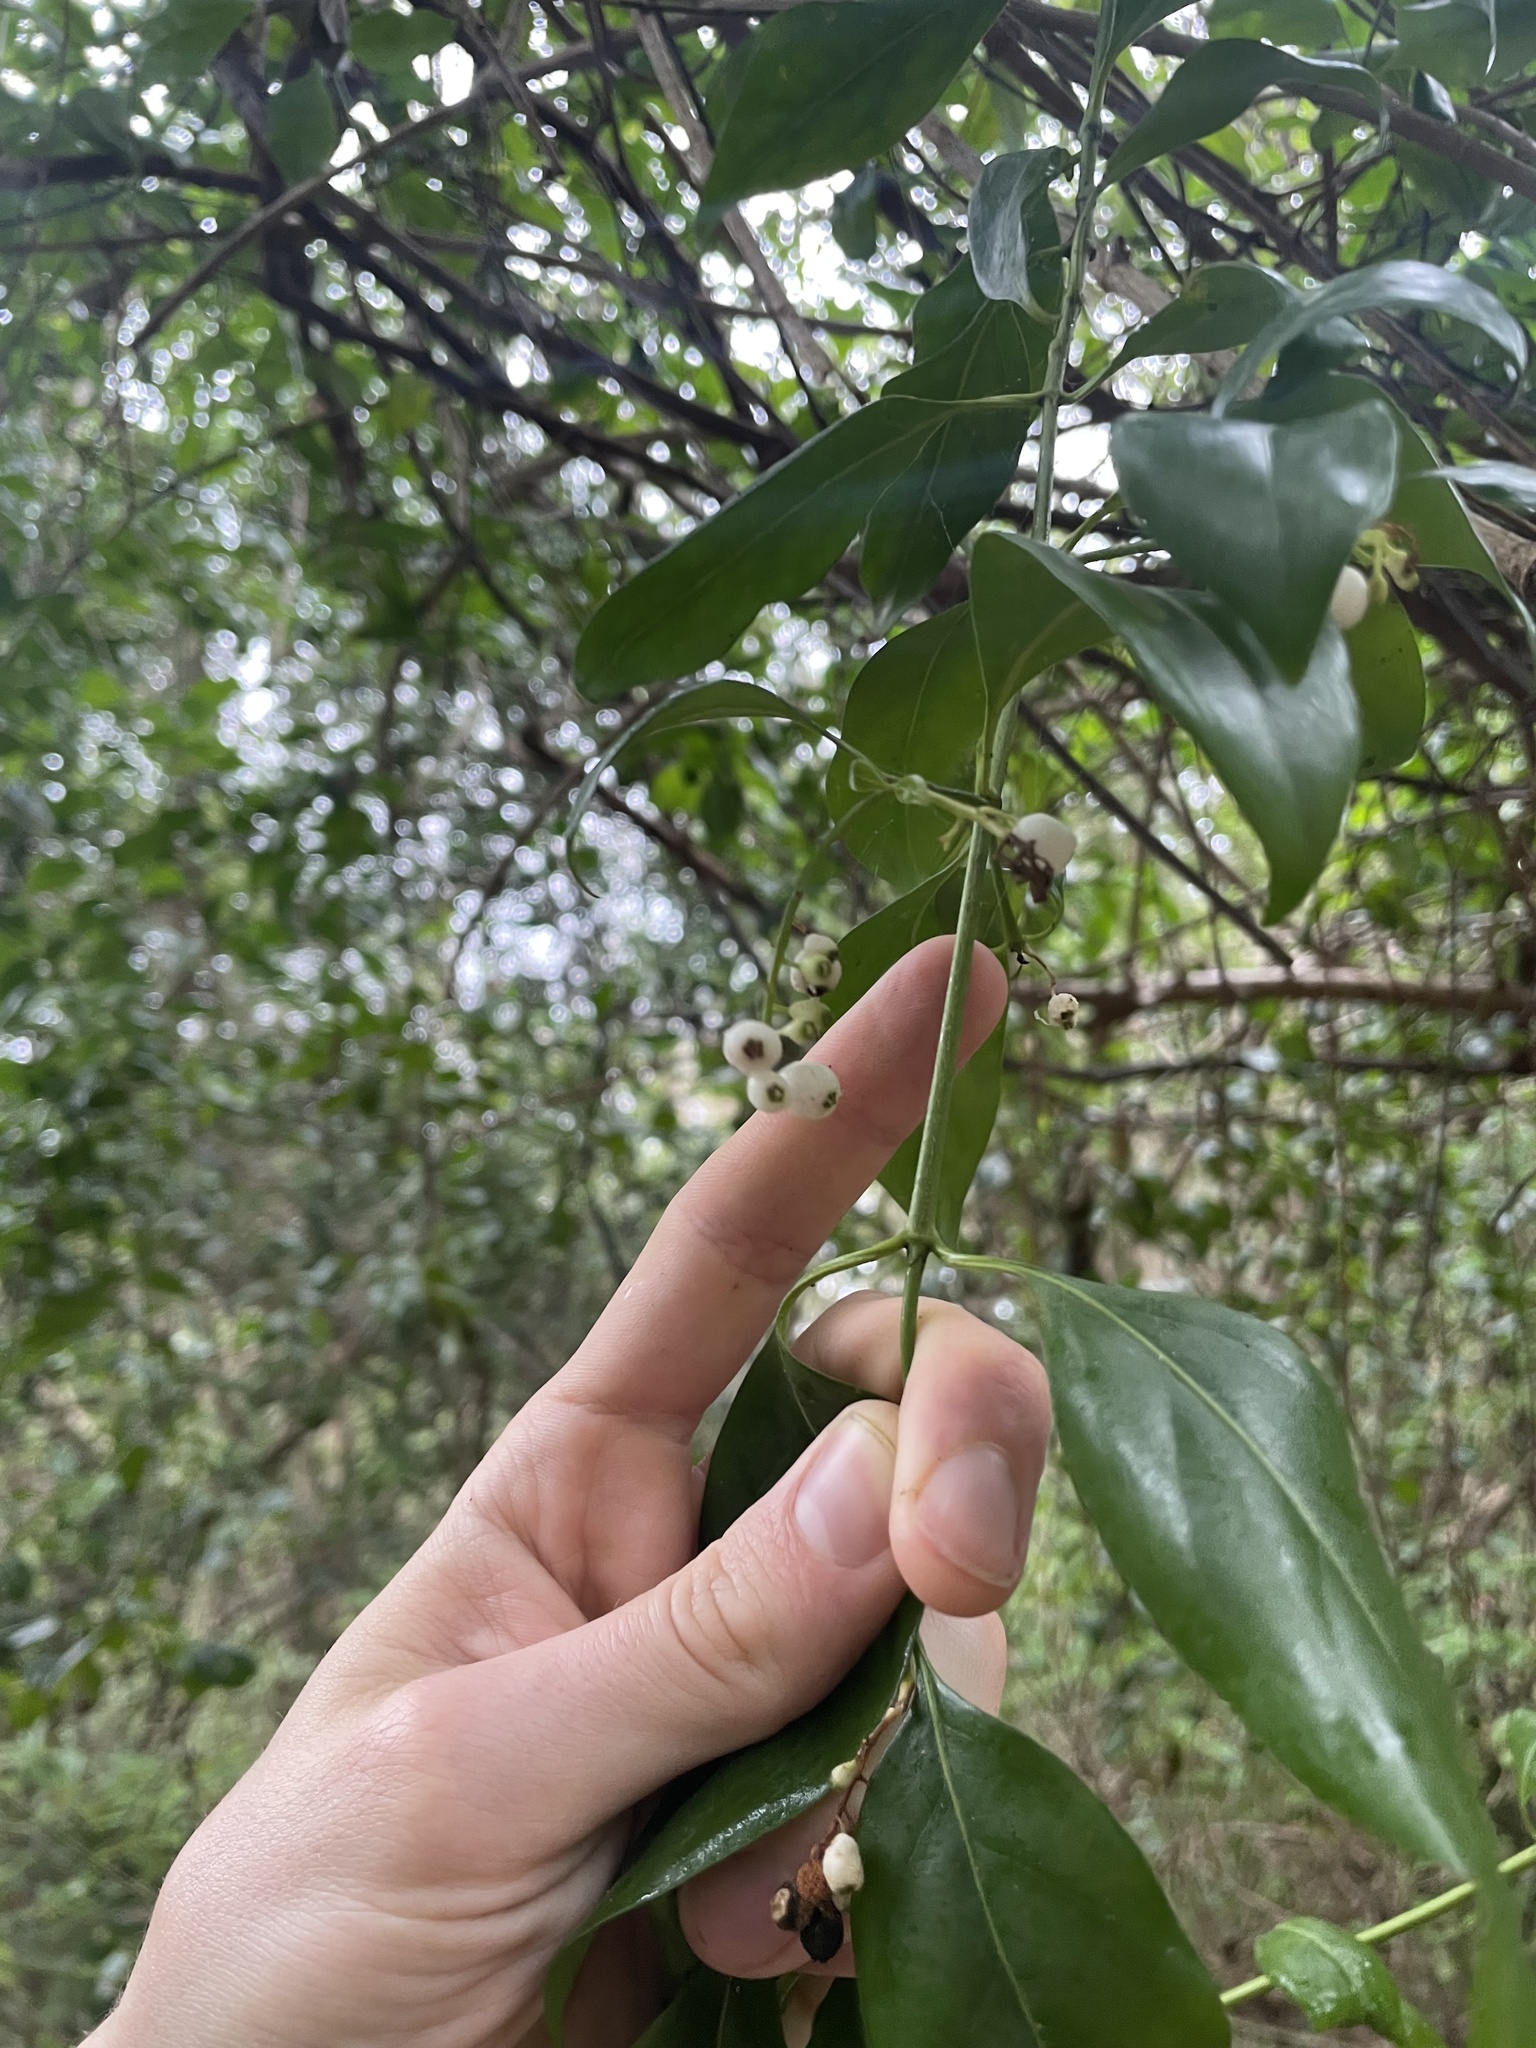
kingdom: Plantae
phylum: Tracheophyta
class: Magnoliopsida
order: Gentianales
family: Rubiaceae
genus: Chiococca
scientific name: Chiococca alba
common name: Snowberry
